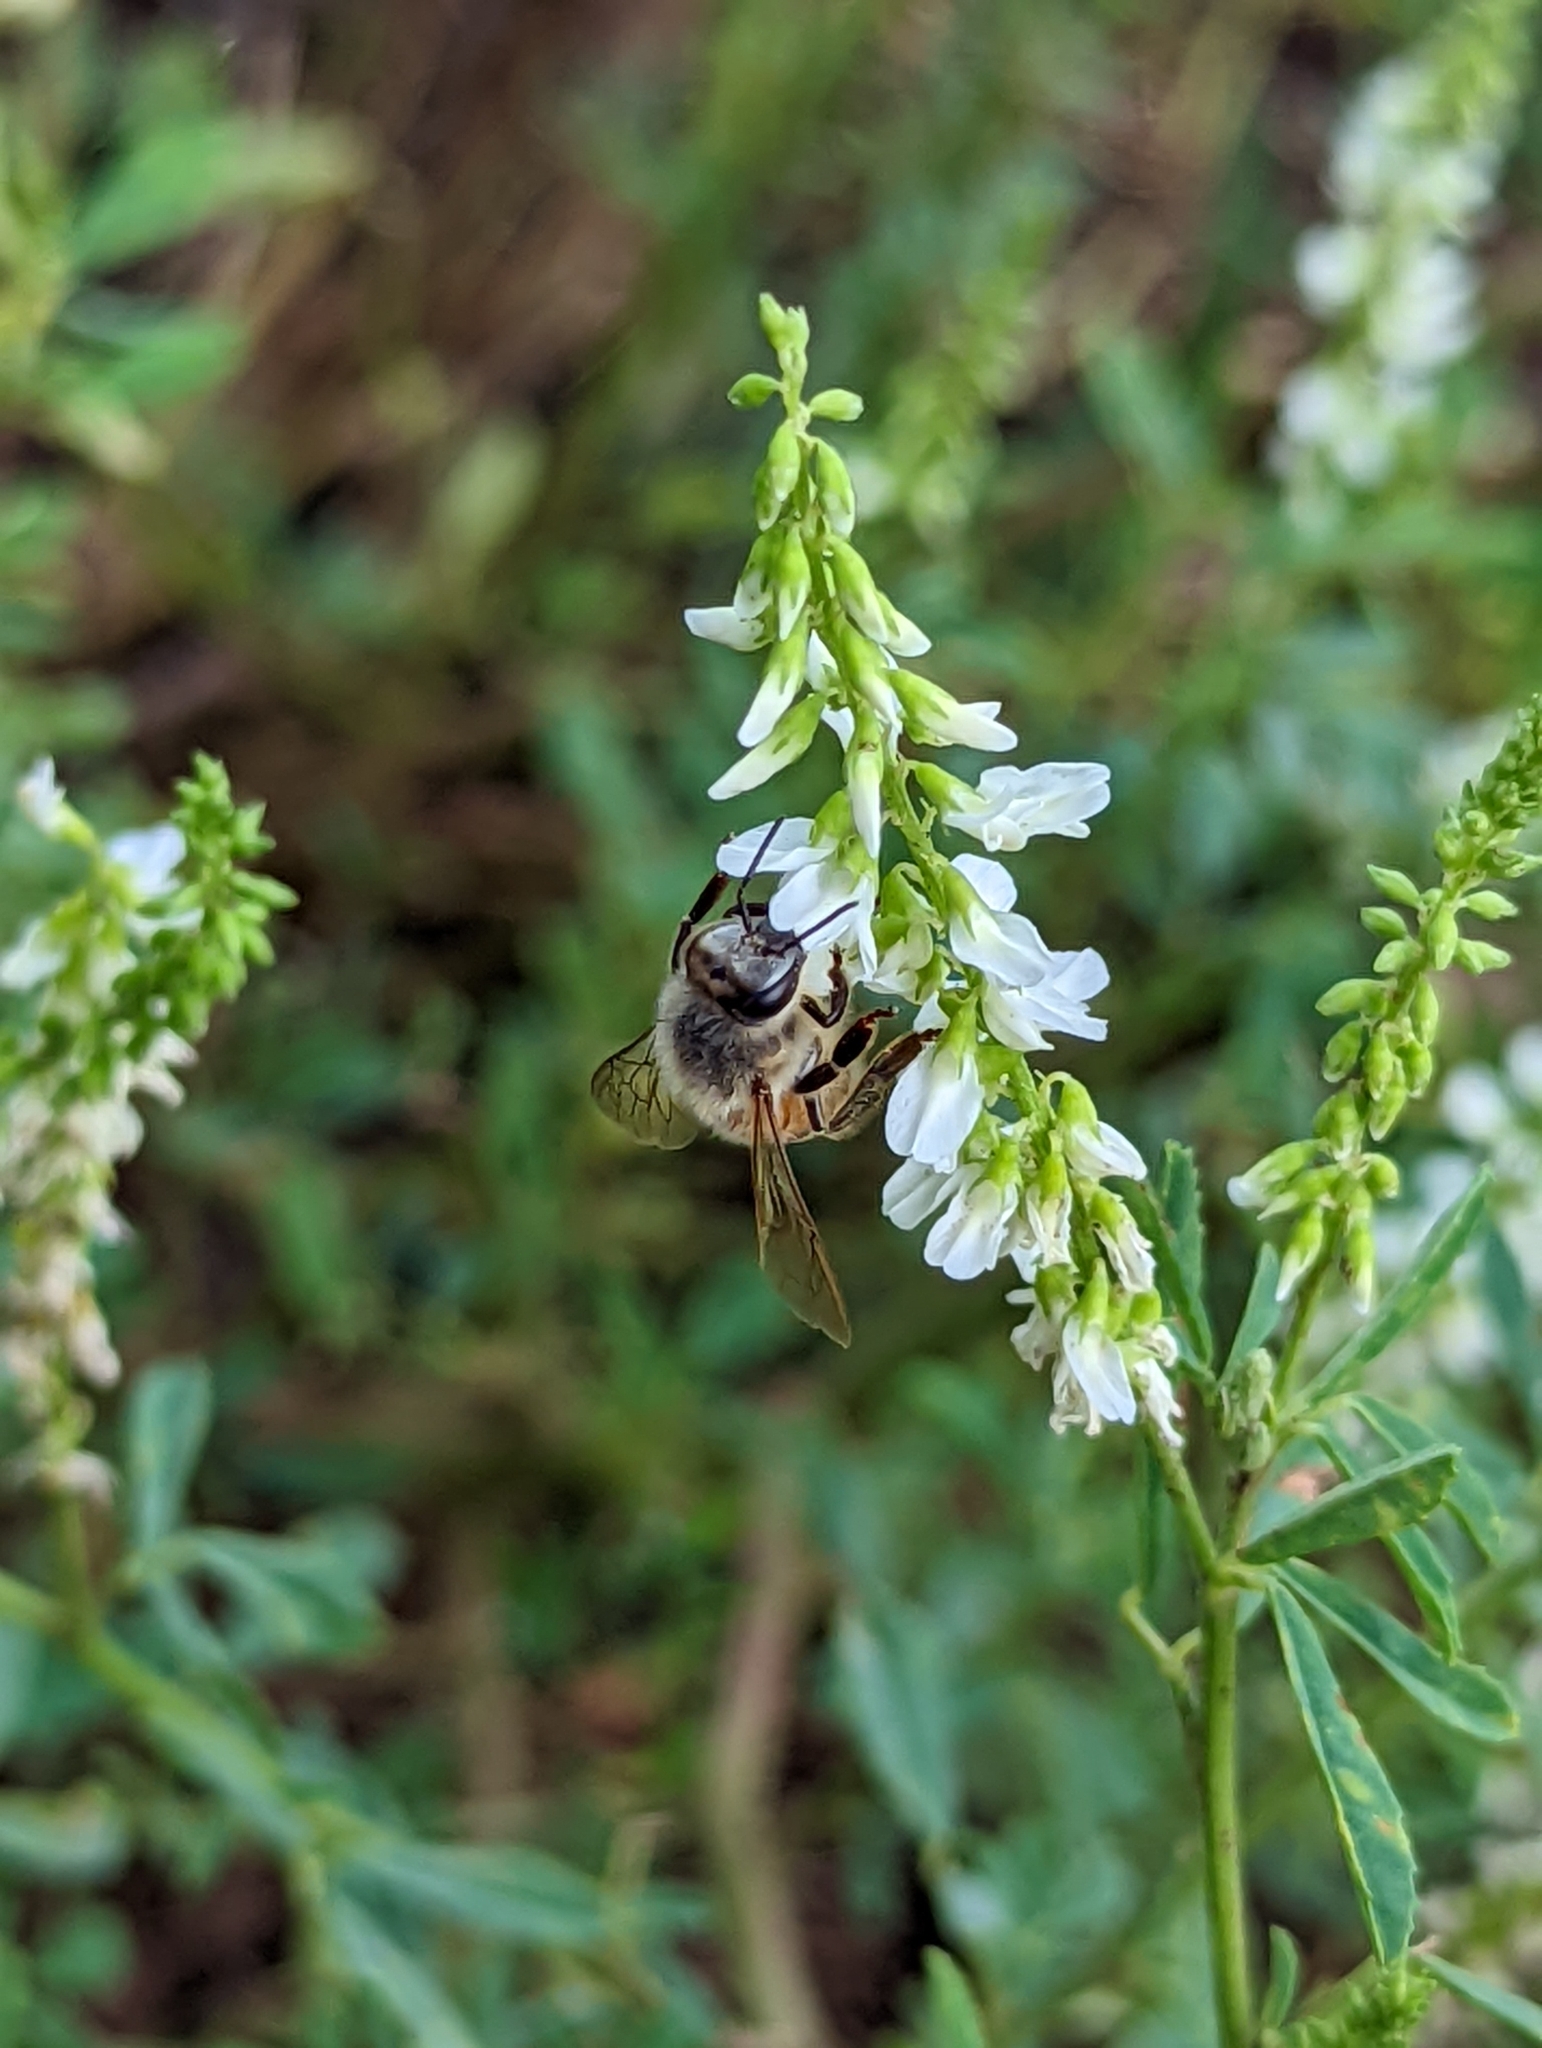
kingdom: Animalia
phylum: Arthropoda
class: Insecta
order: Hymenoptera
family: Apidae
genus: Apis
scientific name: Apis mellifera
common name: Honey bee
